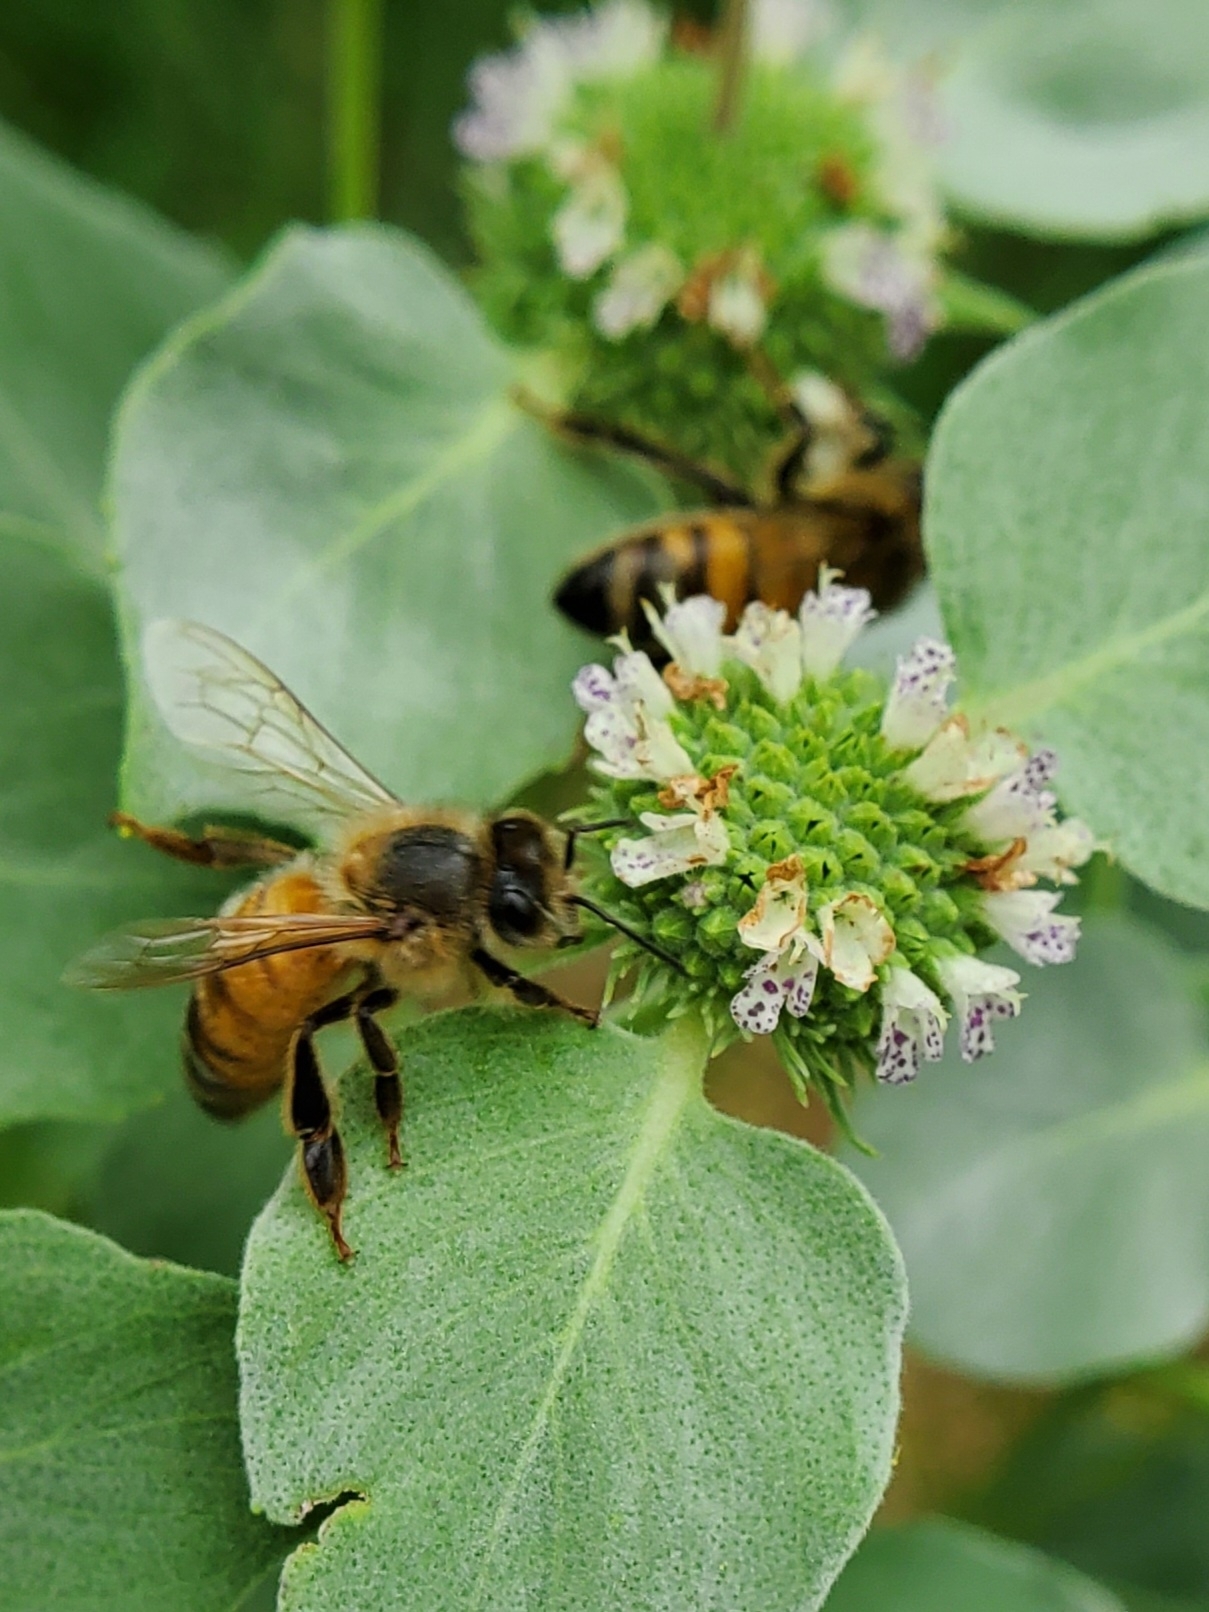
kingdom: Animalia
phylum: Arthropoda
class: Insecta
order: Hymenoptera
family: Apidae
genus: Apis
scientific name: Apis mellifera
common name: Honey bee
